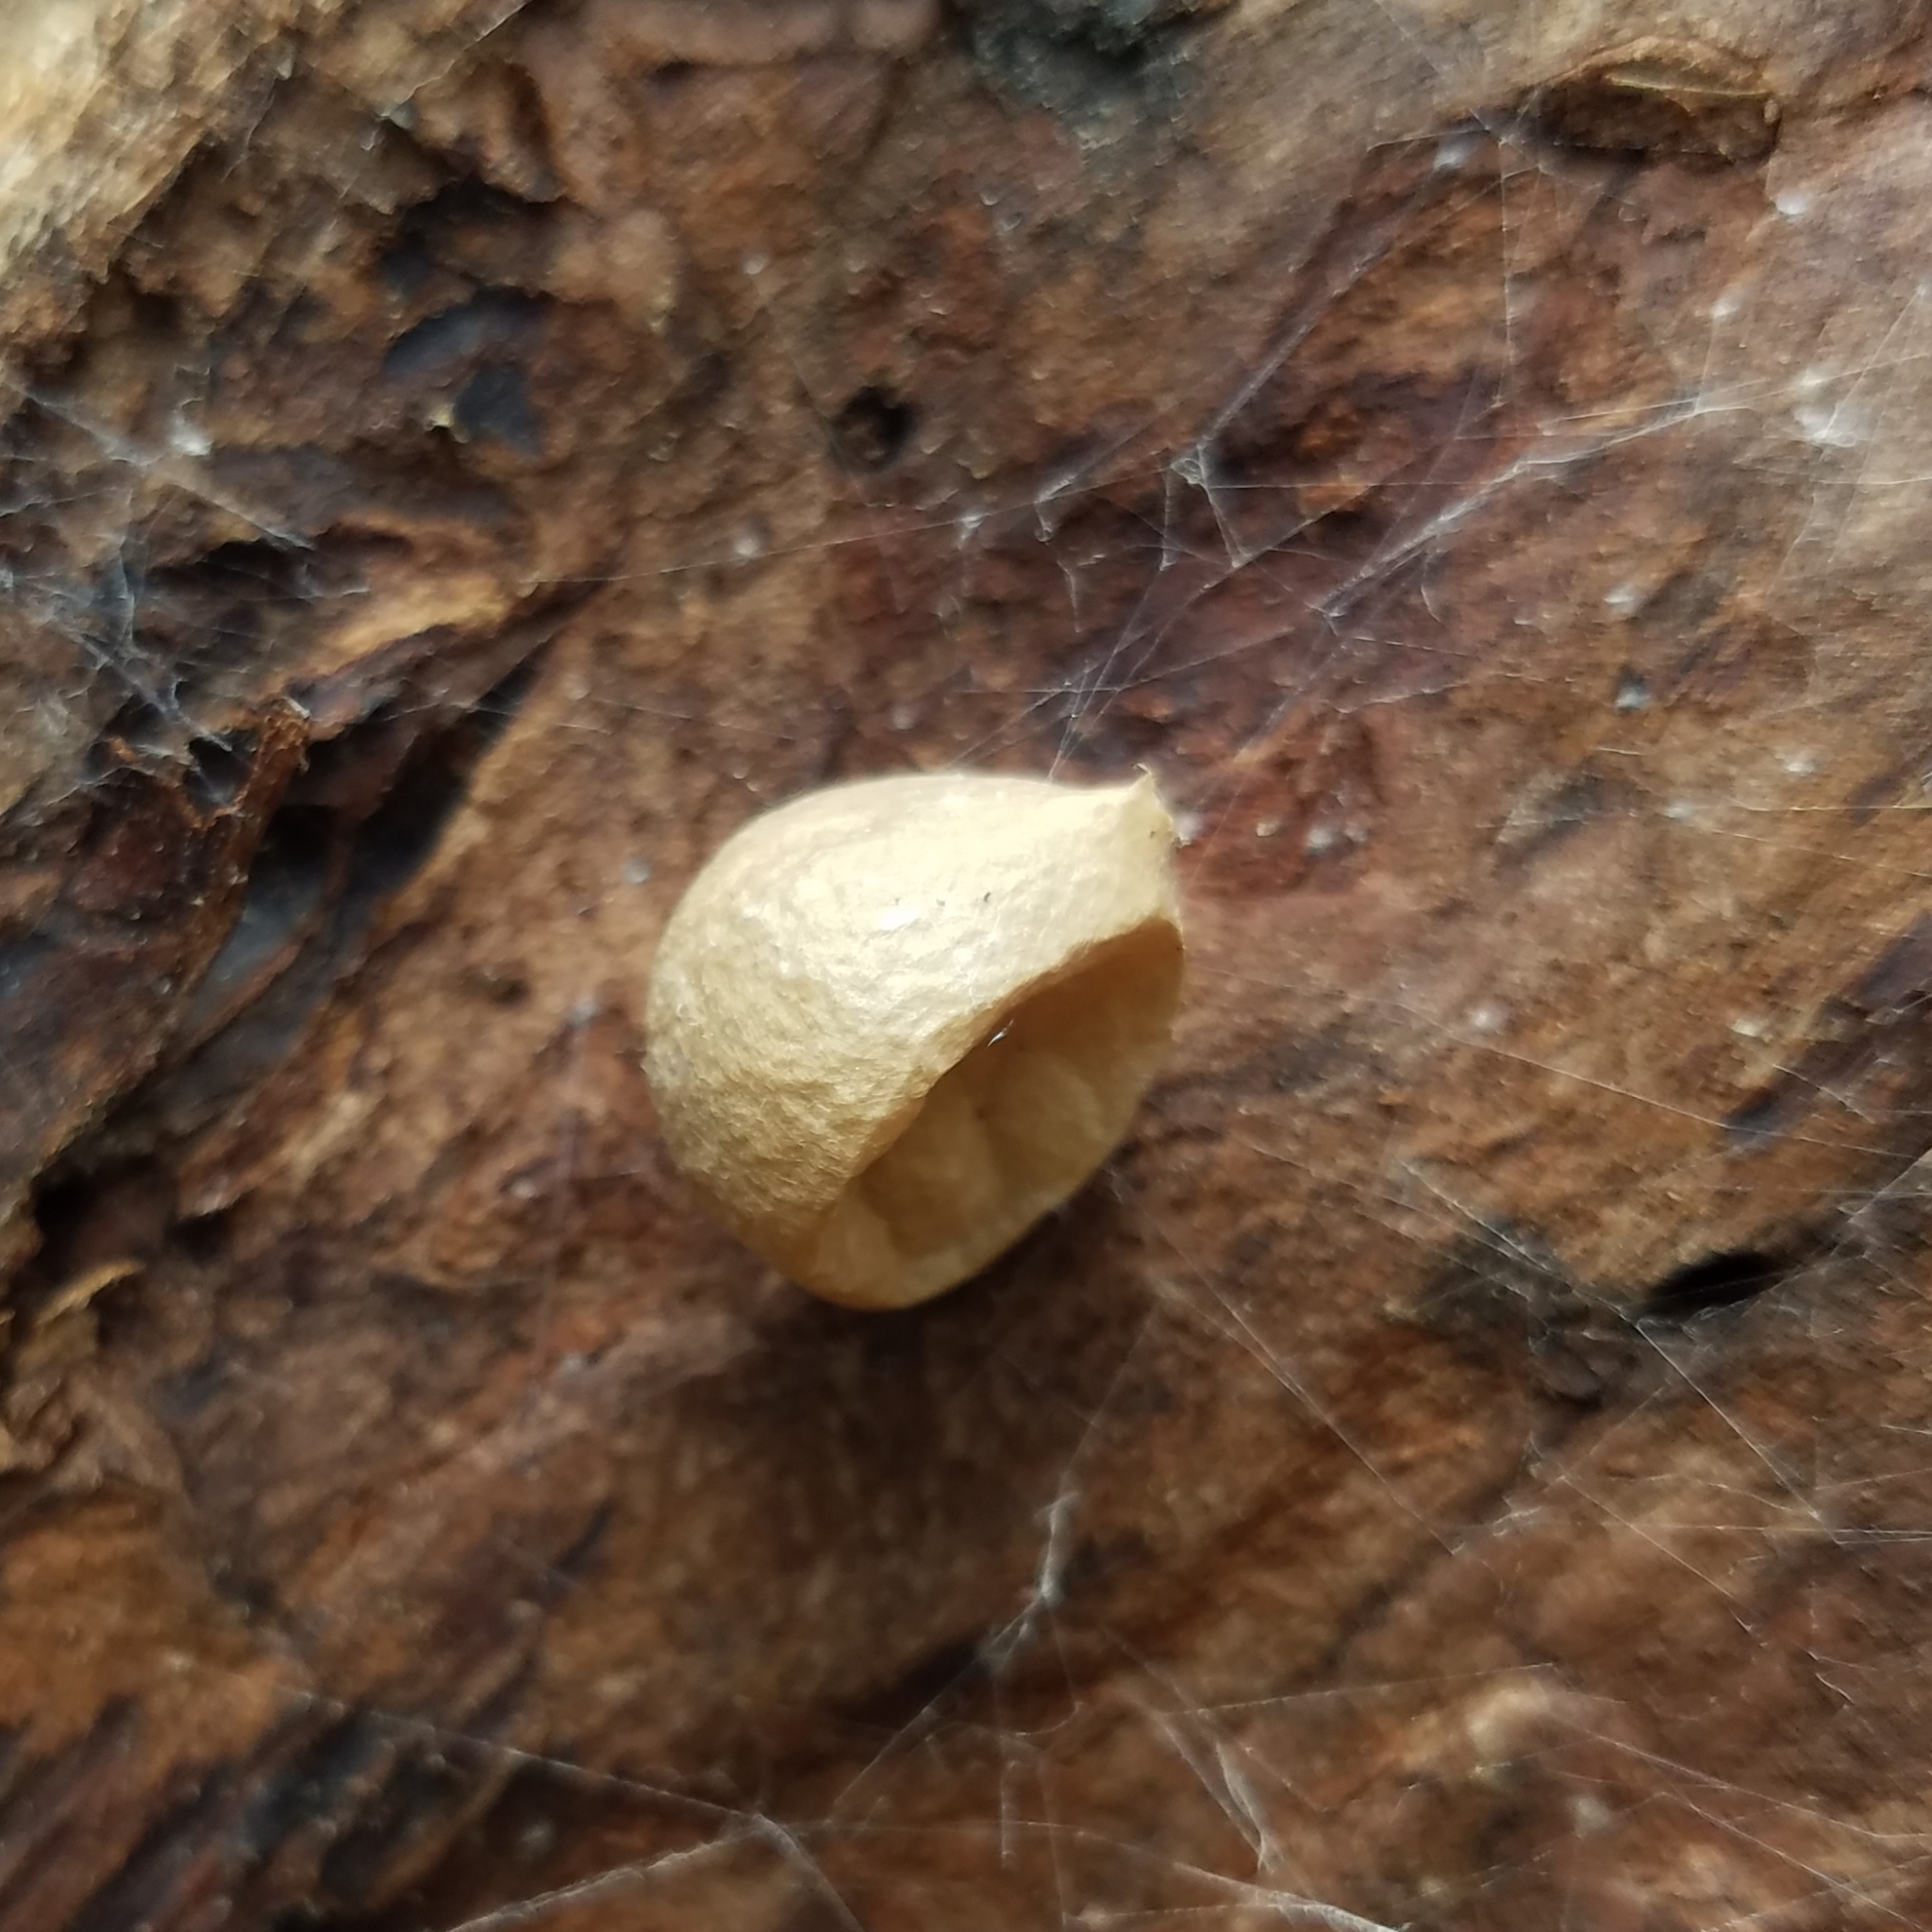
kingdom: Animalia
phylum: Arthropoda
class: Arachnida
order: Araneae
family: Theridiidae
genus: Latrodectus
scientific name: Latrodectus mactans
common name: Cobweb spiders
